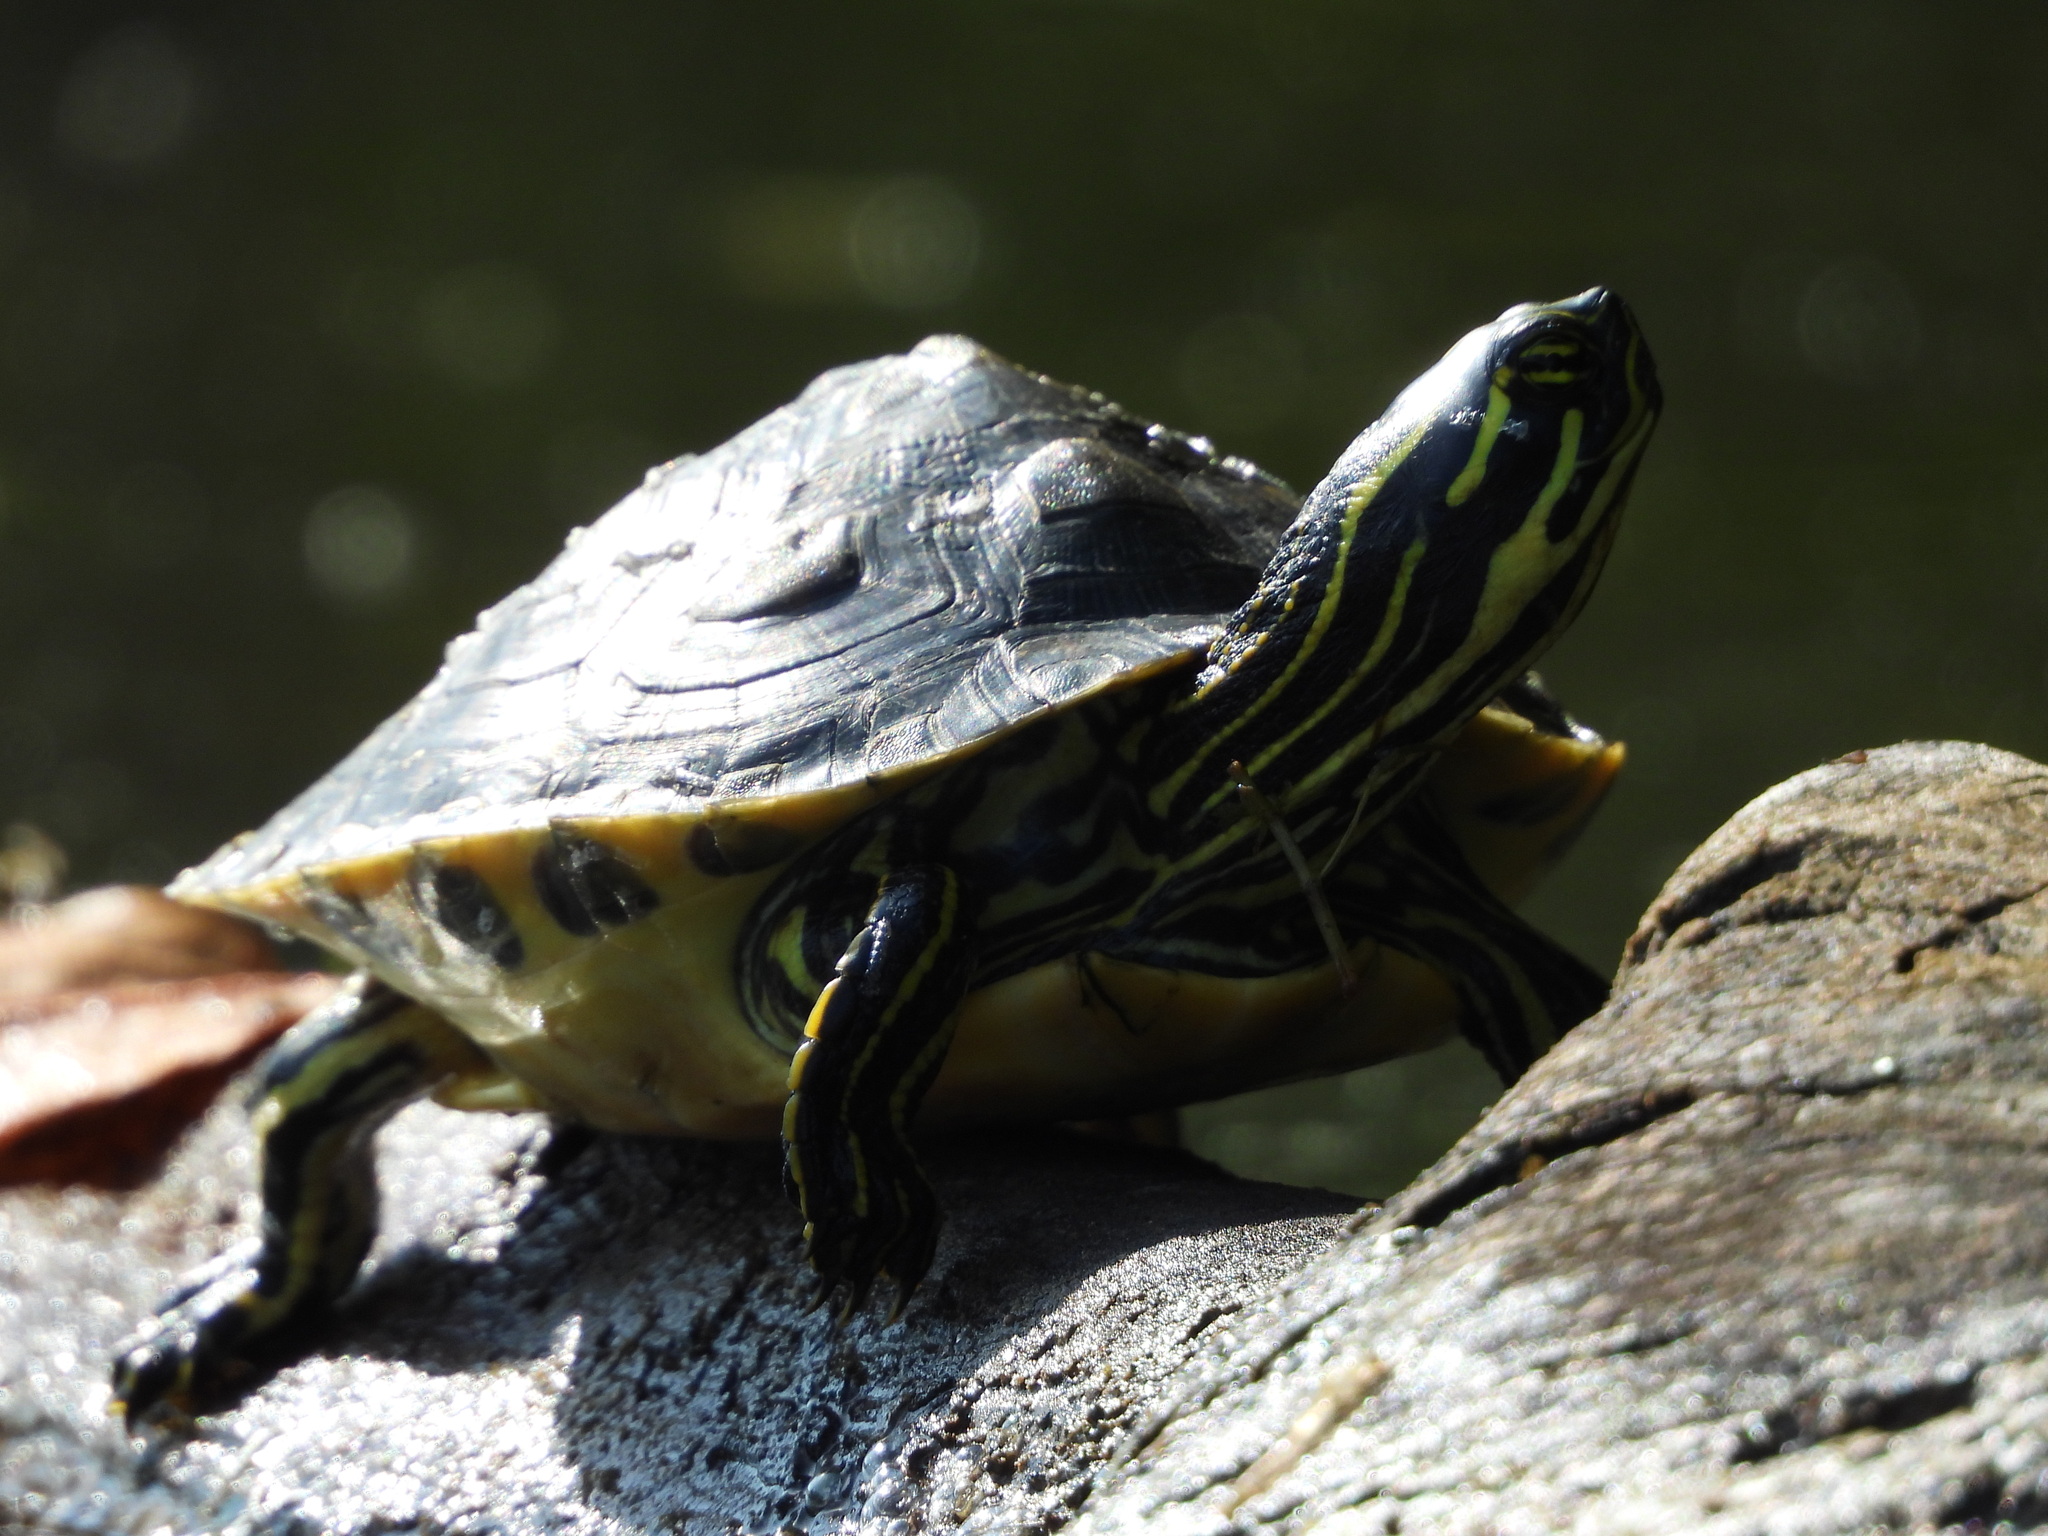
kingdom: Animalia
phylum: Chordata
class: Testudines
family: Emydidae
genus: Trachemys
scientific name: Trachemys scripta
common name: Slider
